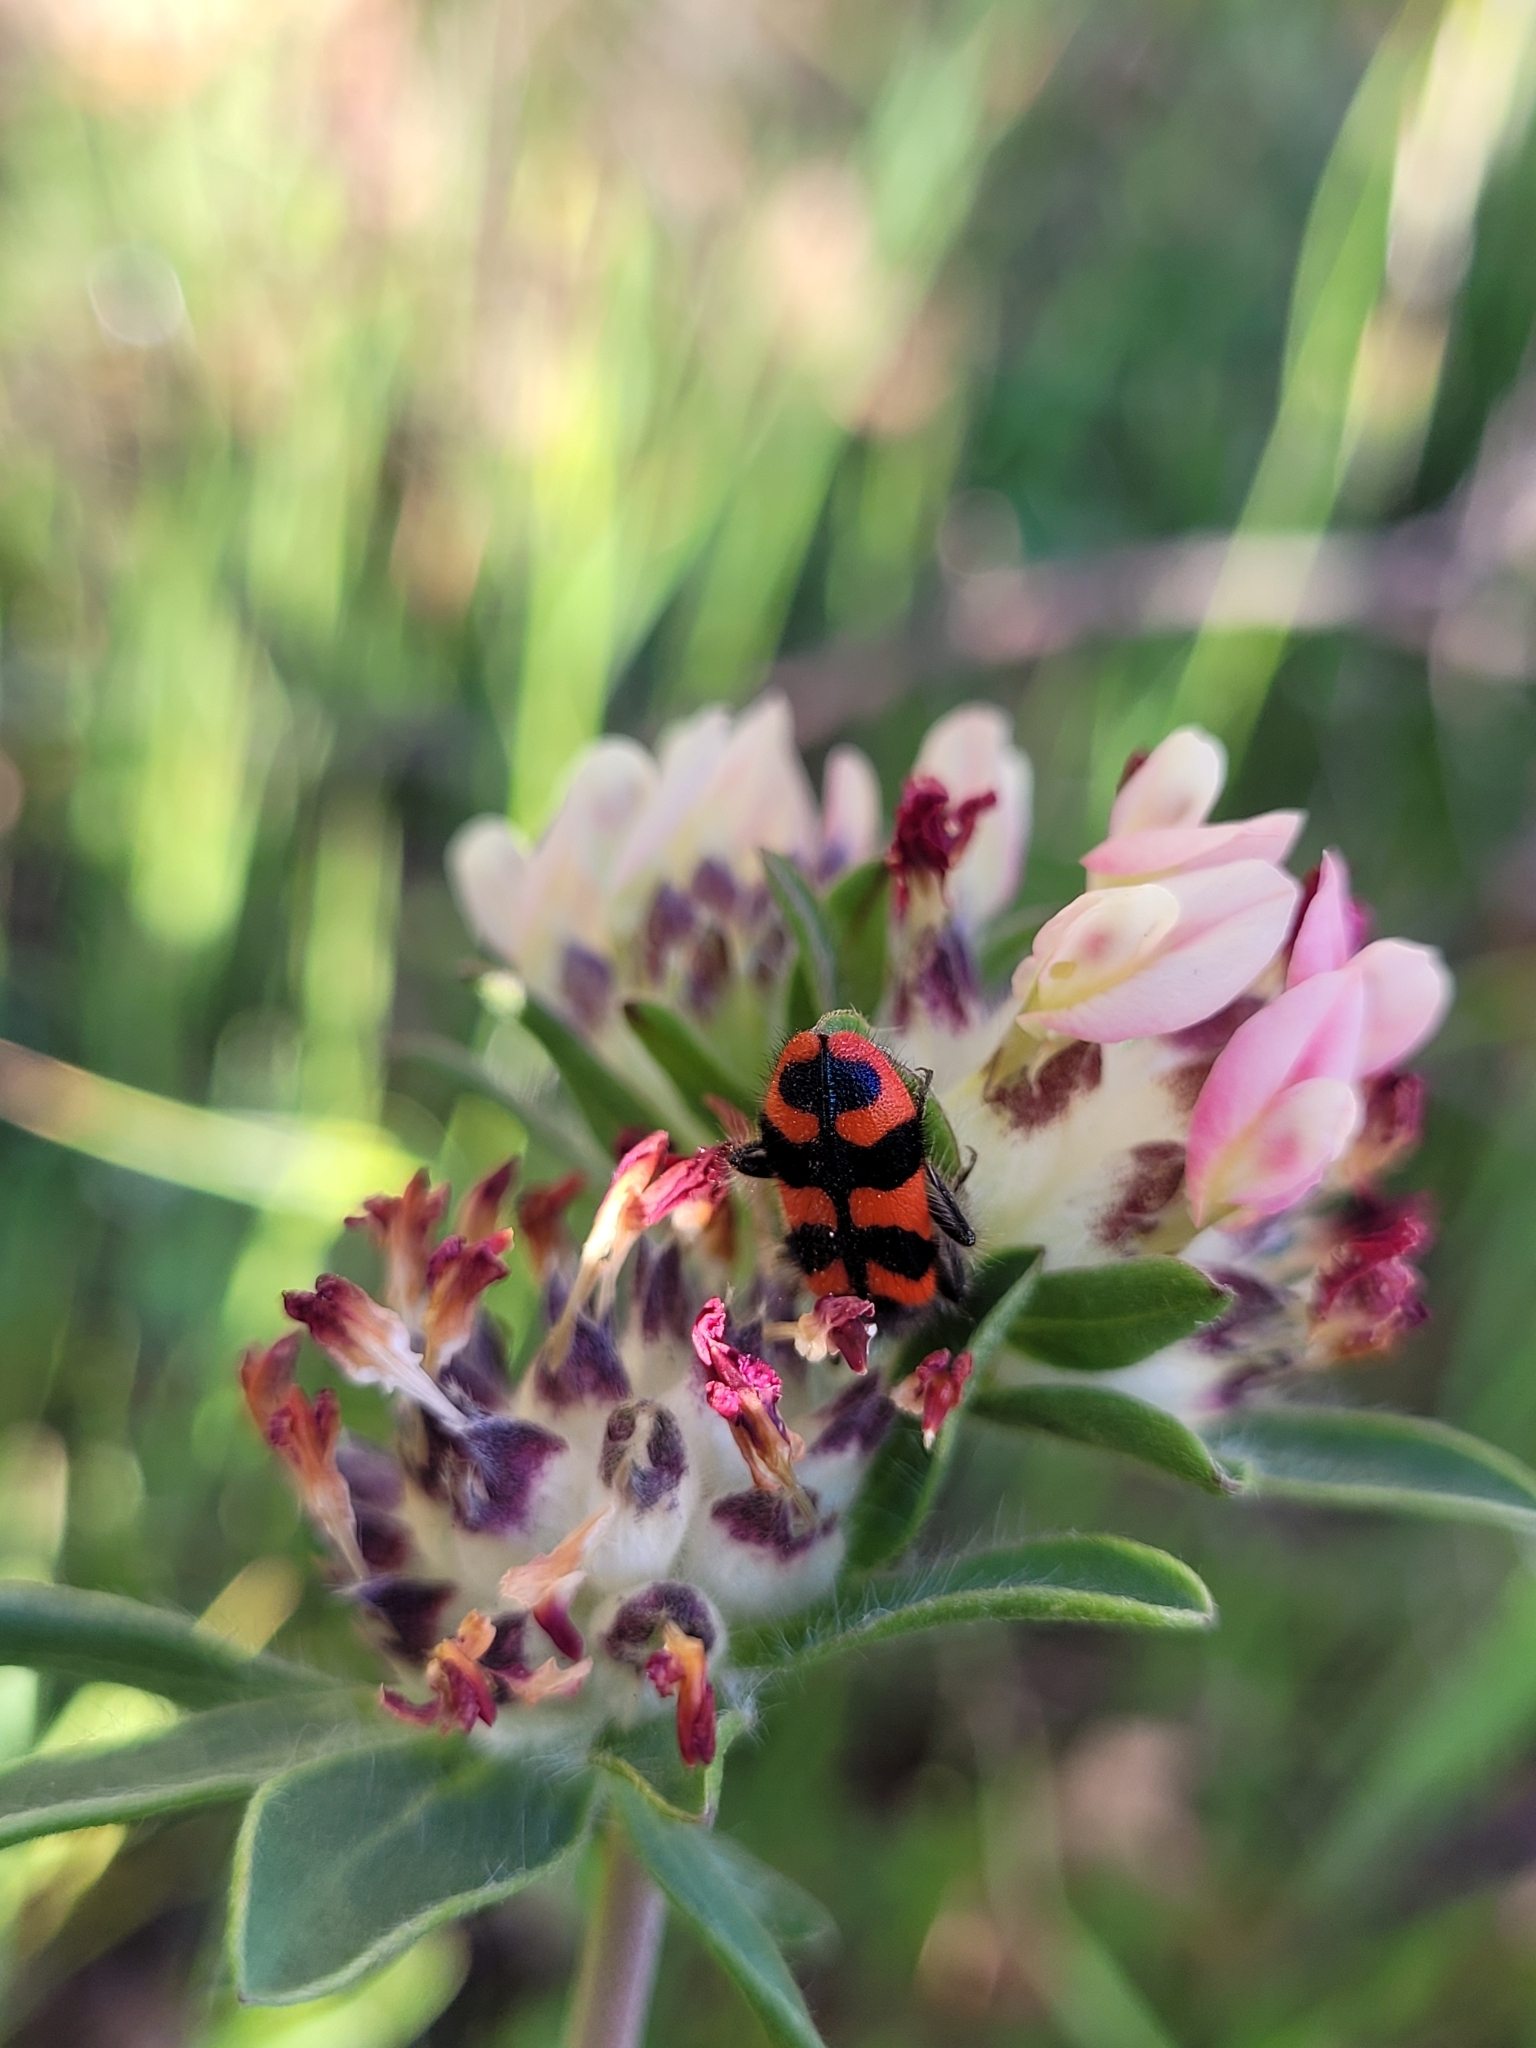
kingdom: Animalia
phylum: Arthropoda
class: Insecta
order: Coleoptera
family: Cleridae
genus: Trichodes
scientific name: Trichodes alvearius
